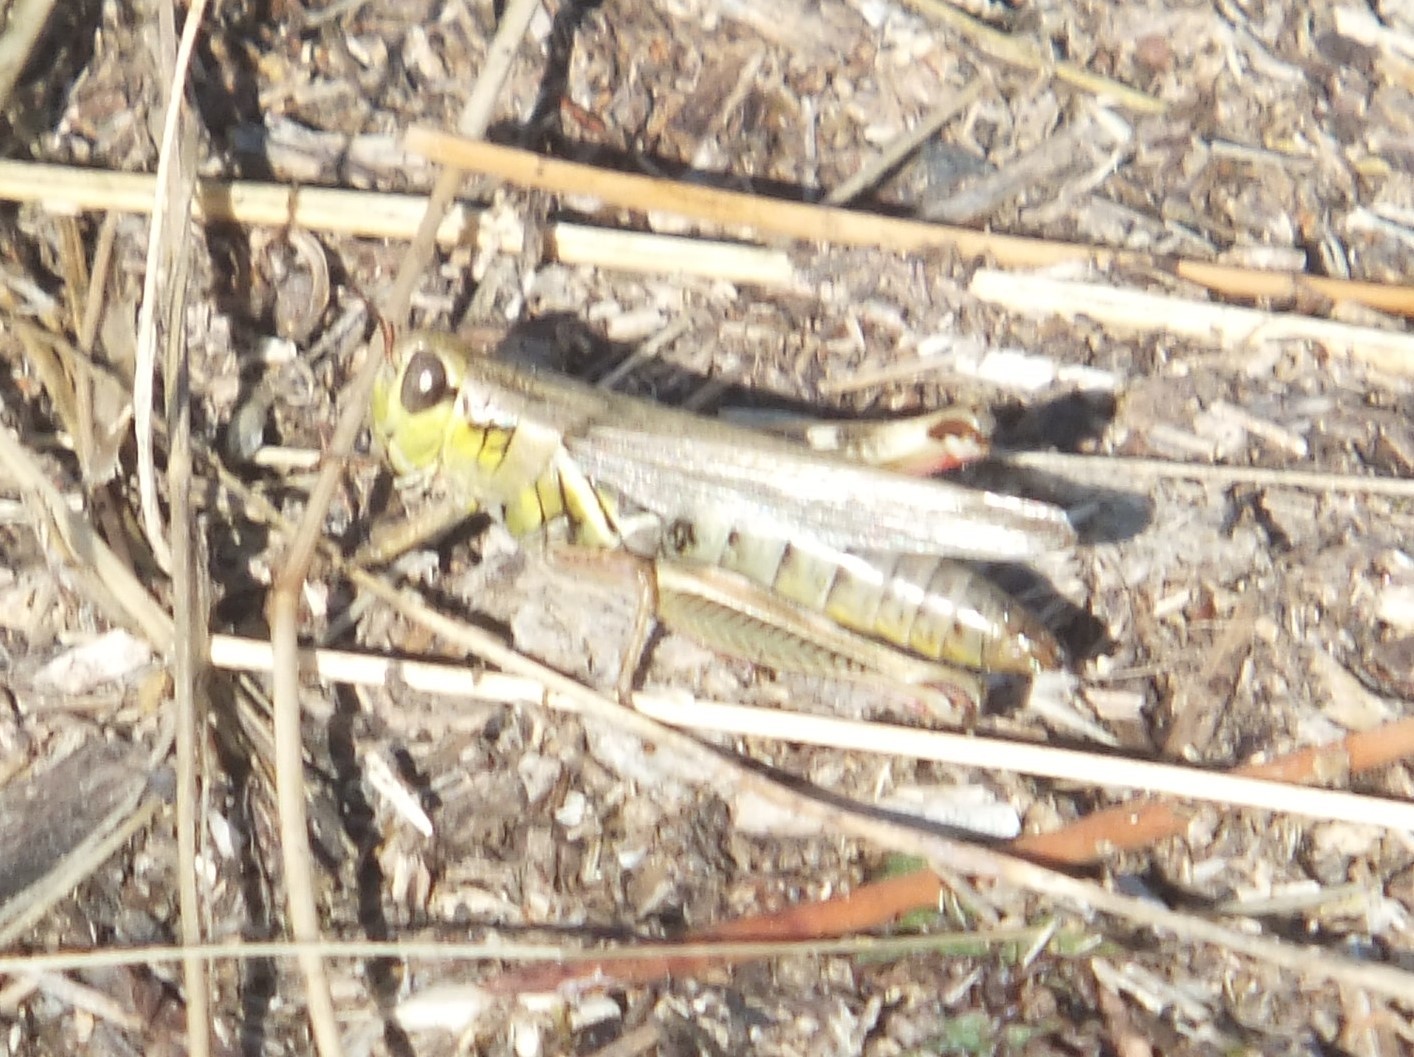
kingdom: Animalia
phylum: Arthropoda
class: Insecta
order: Orthoptera
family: Acrididae
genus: Melanoplus
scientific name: Melanoplus femurrubrum
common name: Red-legged grasshopper
